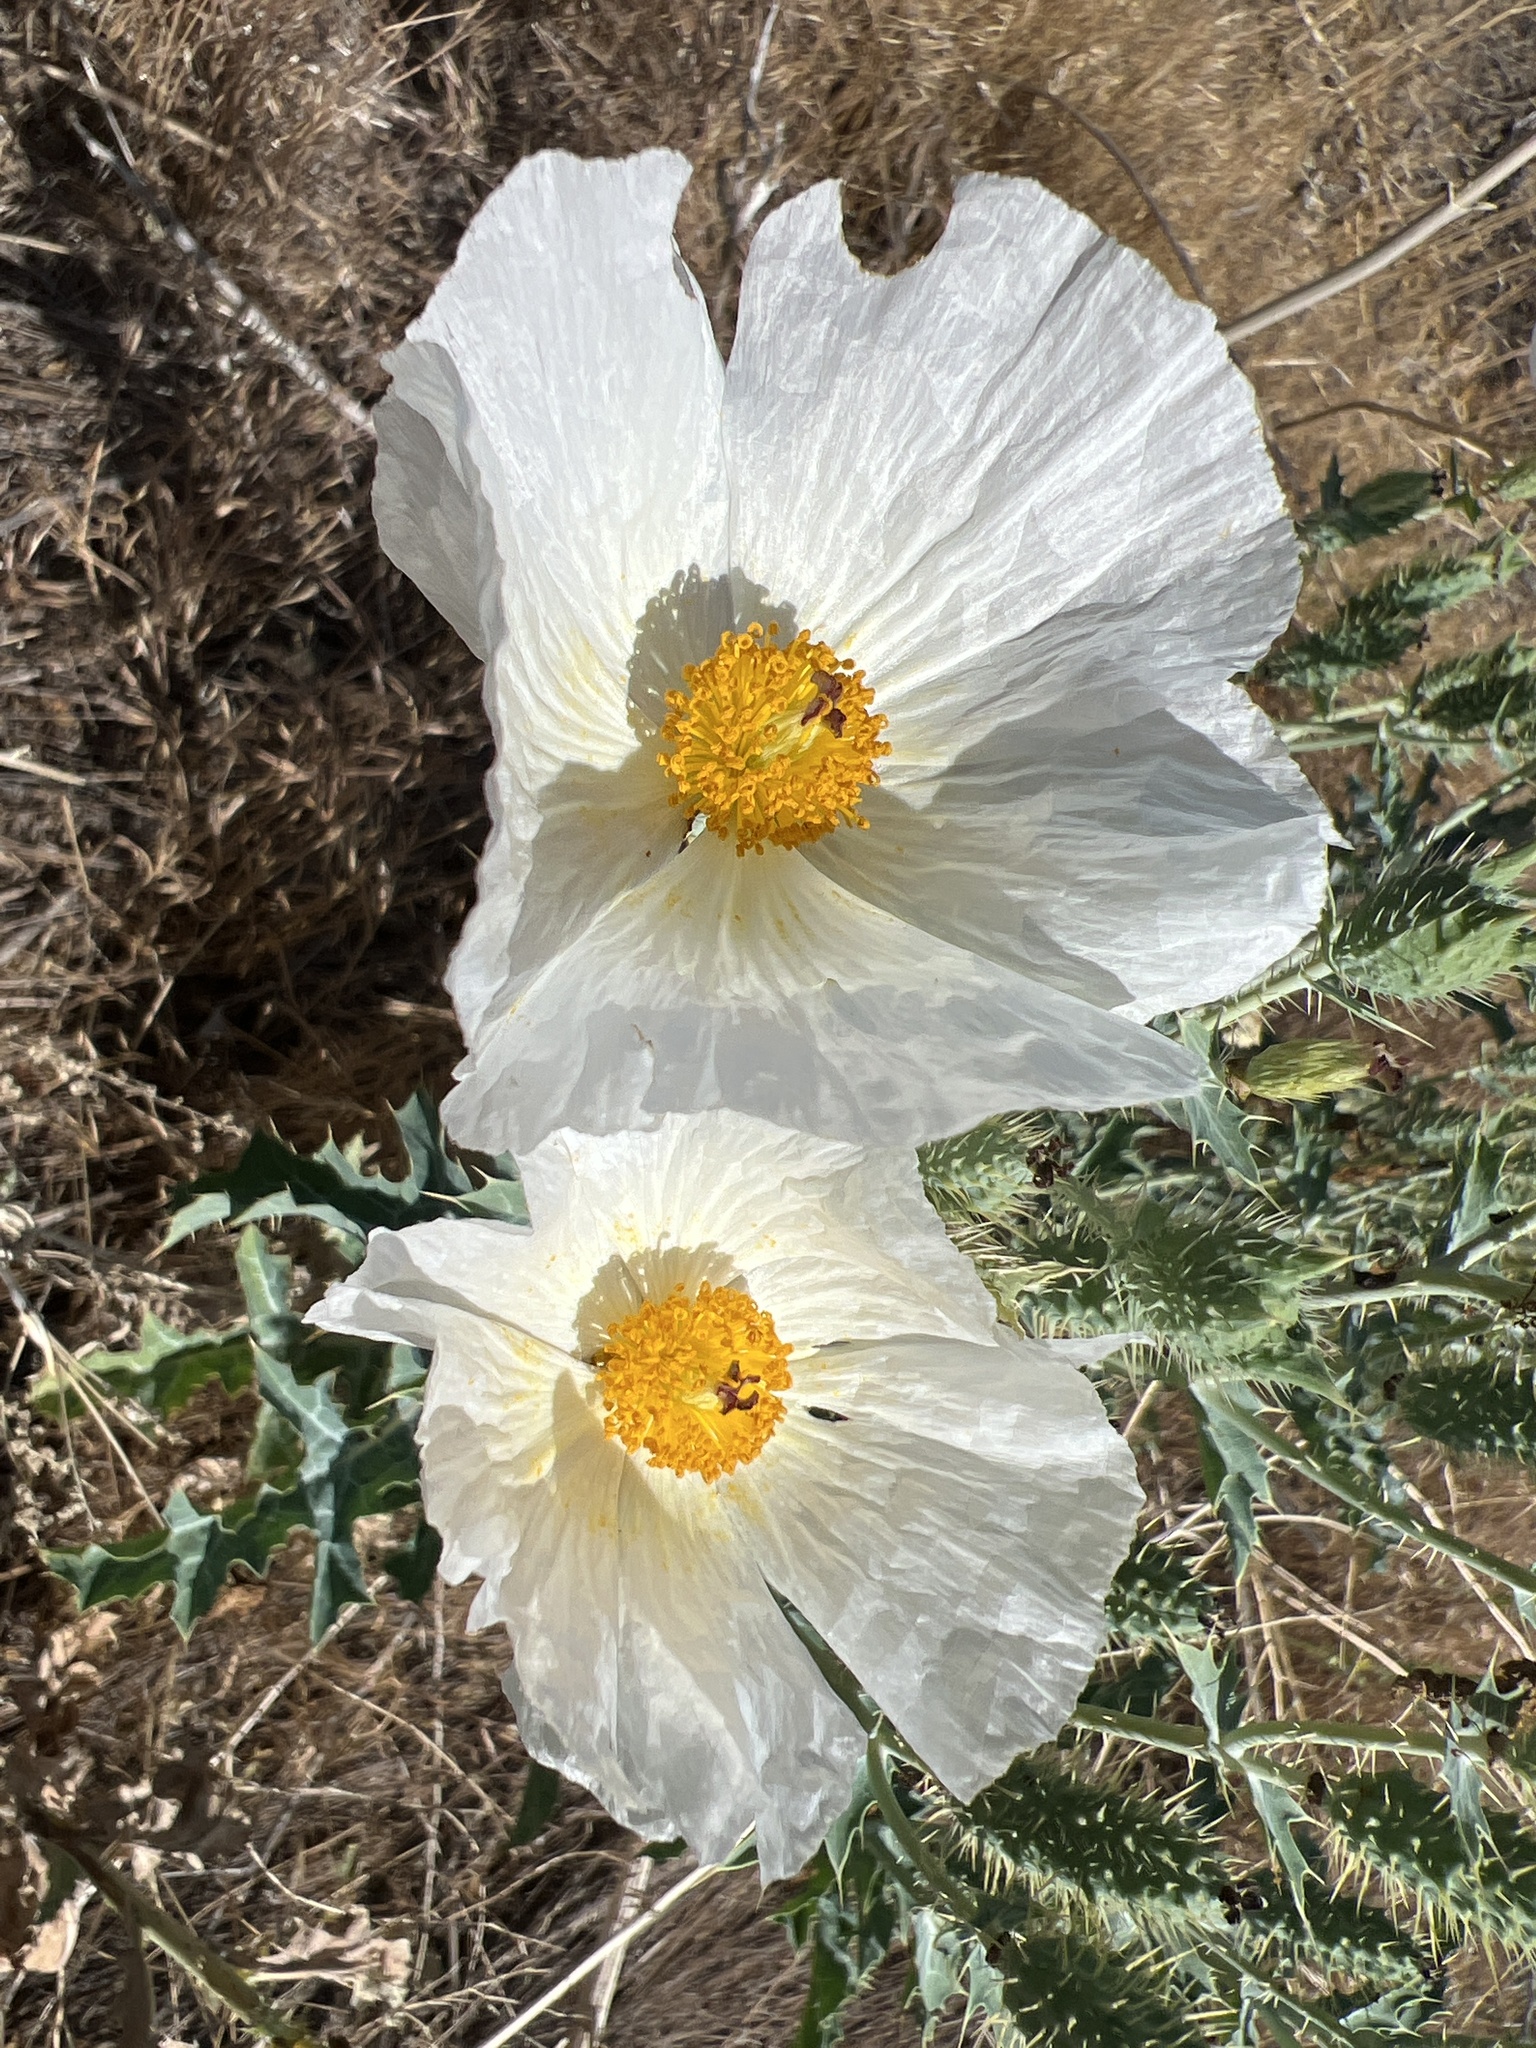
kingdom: Plantae
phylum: Tracheophyta
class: Magnoliopsida
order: Ranunculales
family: Papaveraceae
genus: Argemone
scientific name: Argemone polyanthemos
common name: Plains prickly-poppy
